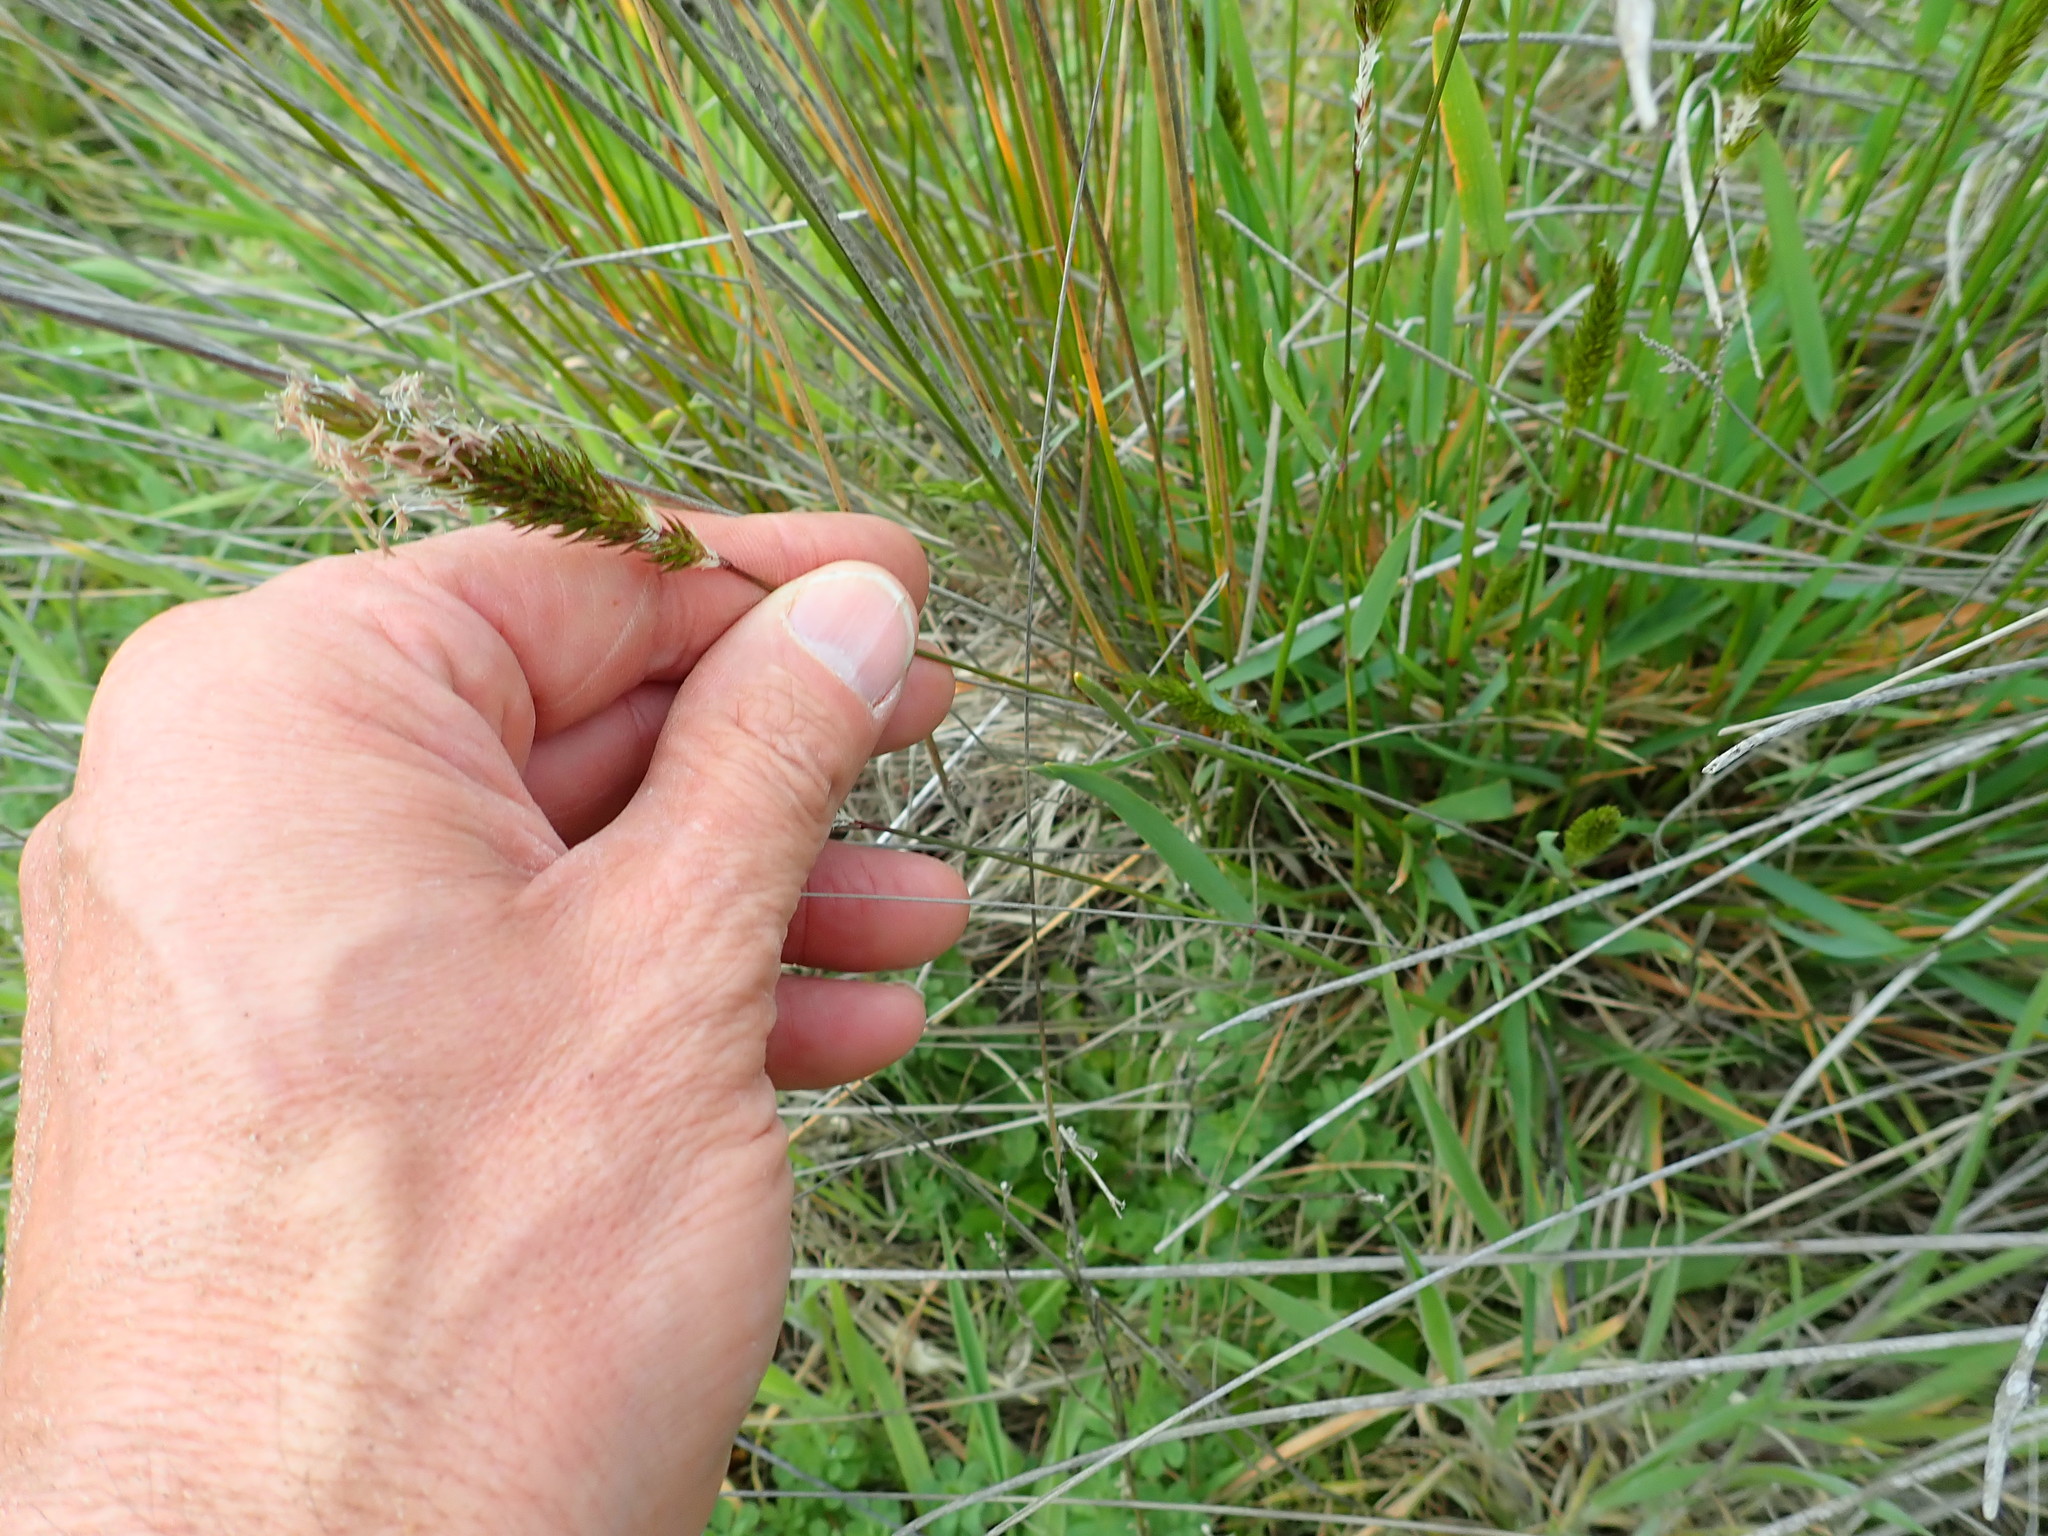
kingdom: Plantae
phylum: Tracheophyta
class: Liliopsida
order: Poales
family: Poaceae
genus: Anthoxanthum
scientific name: Anthoxanthum odoratum
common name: Sweet vernalgrass
